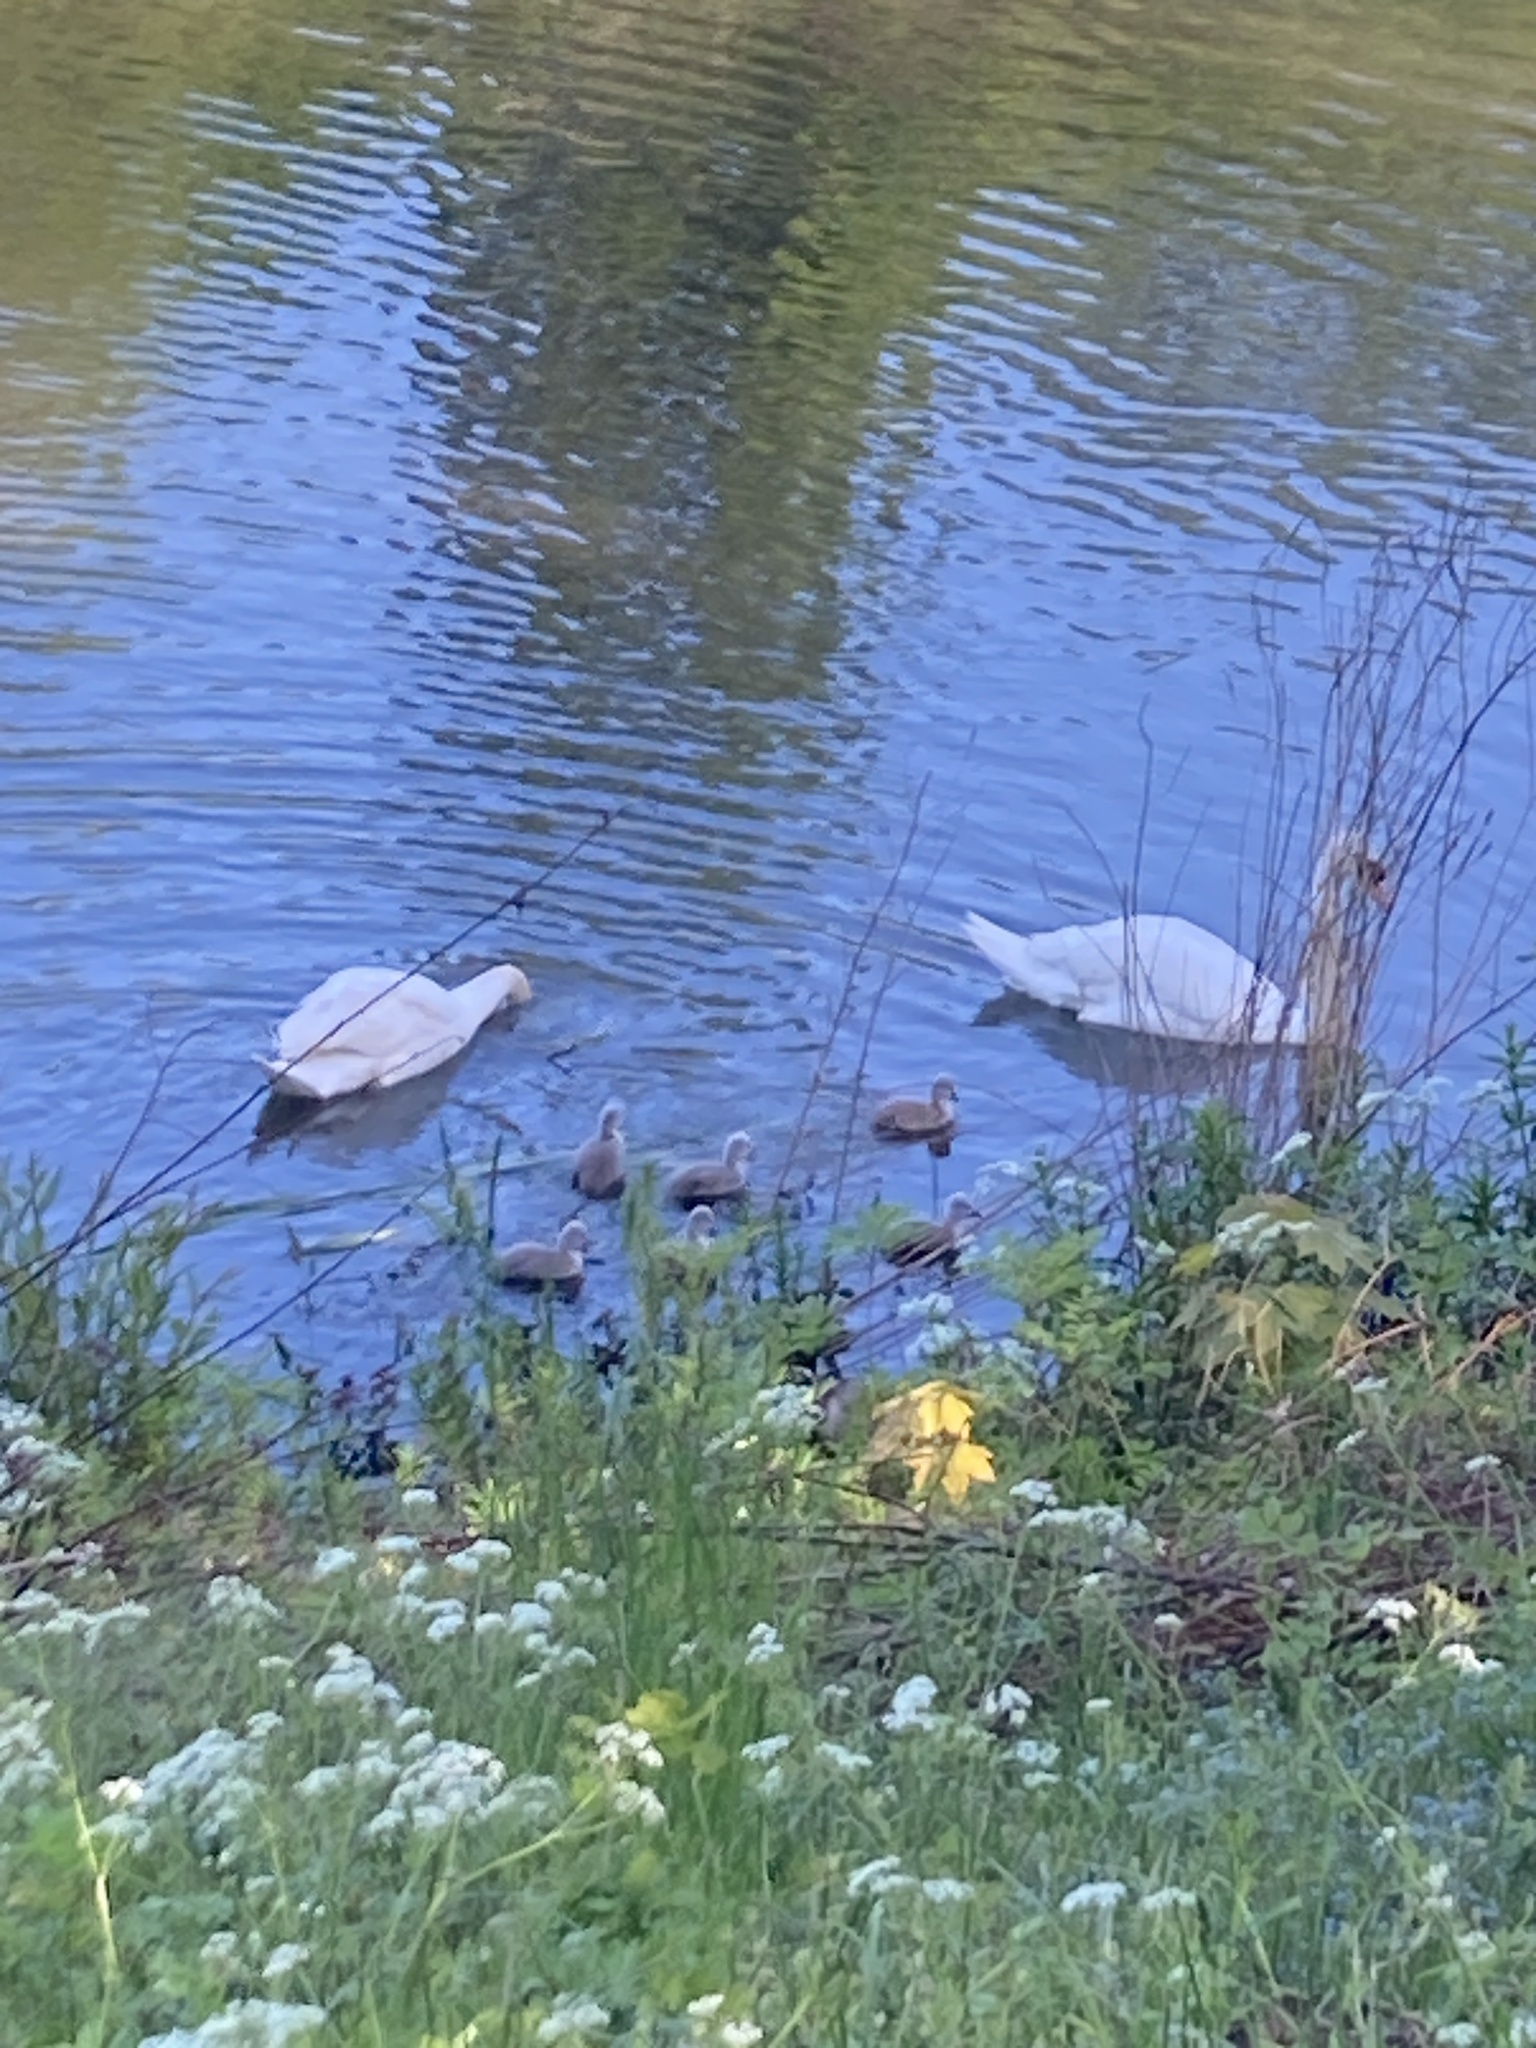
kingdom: Animalia
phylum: Chordata
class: Aves
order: Anseriformes
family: Anatidae
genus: Cygnus
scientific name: Cygnus olor
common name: Mute swan
